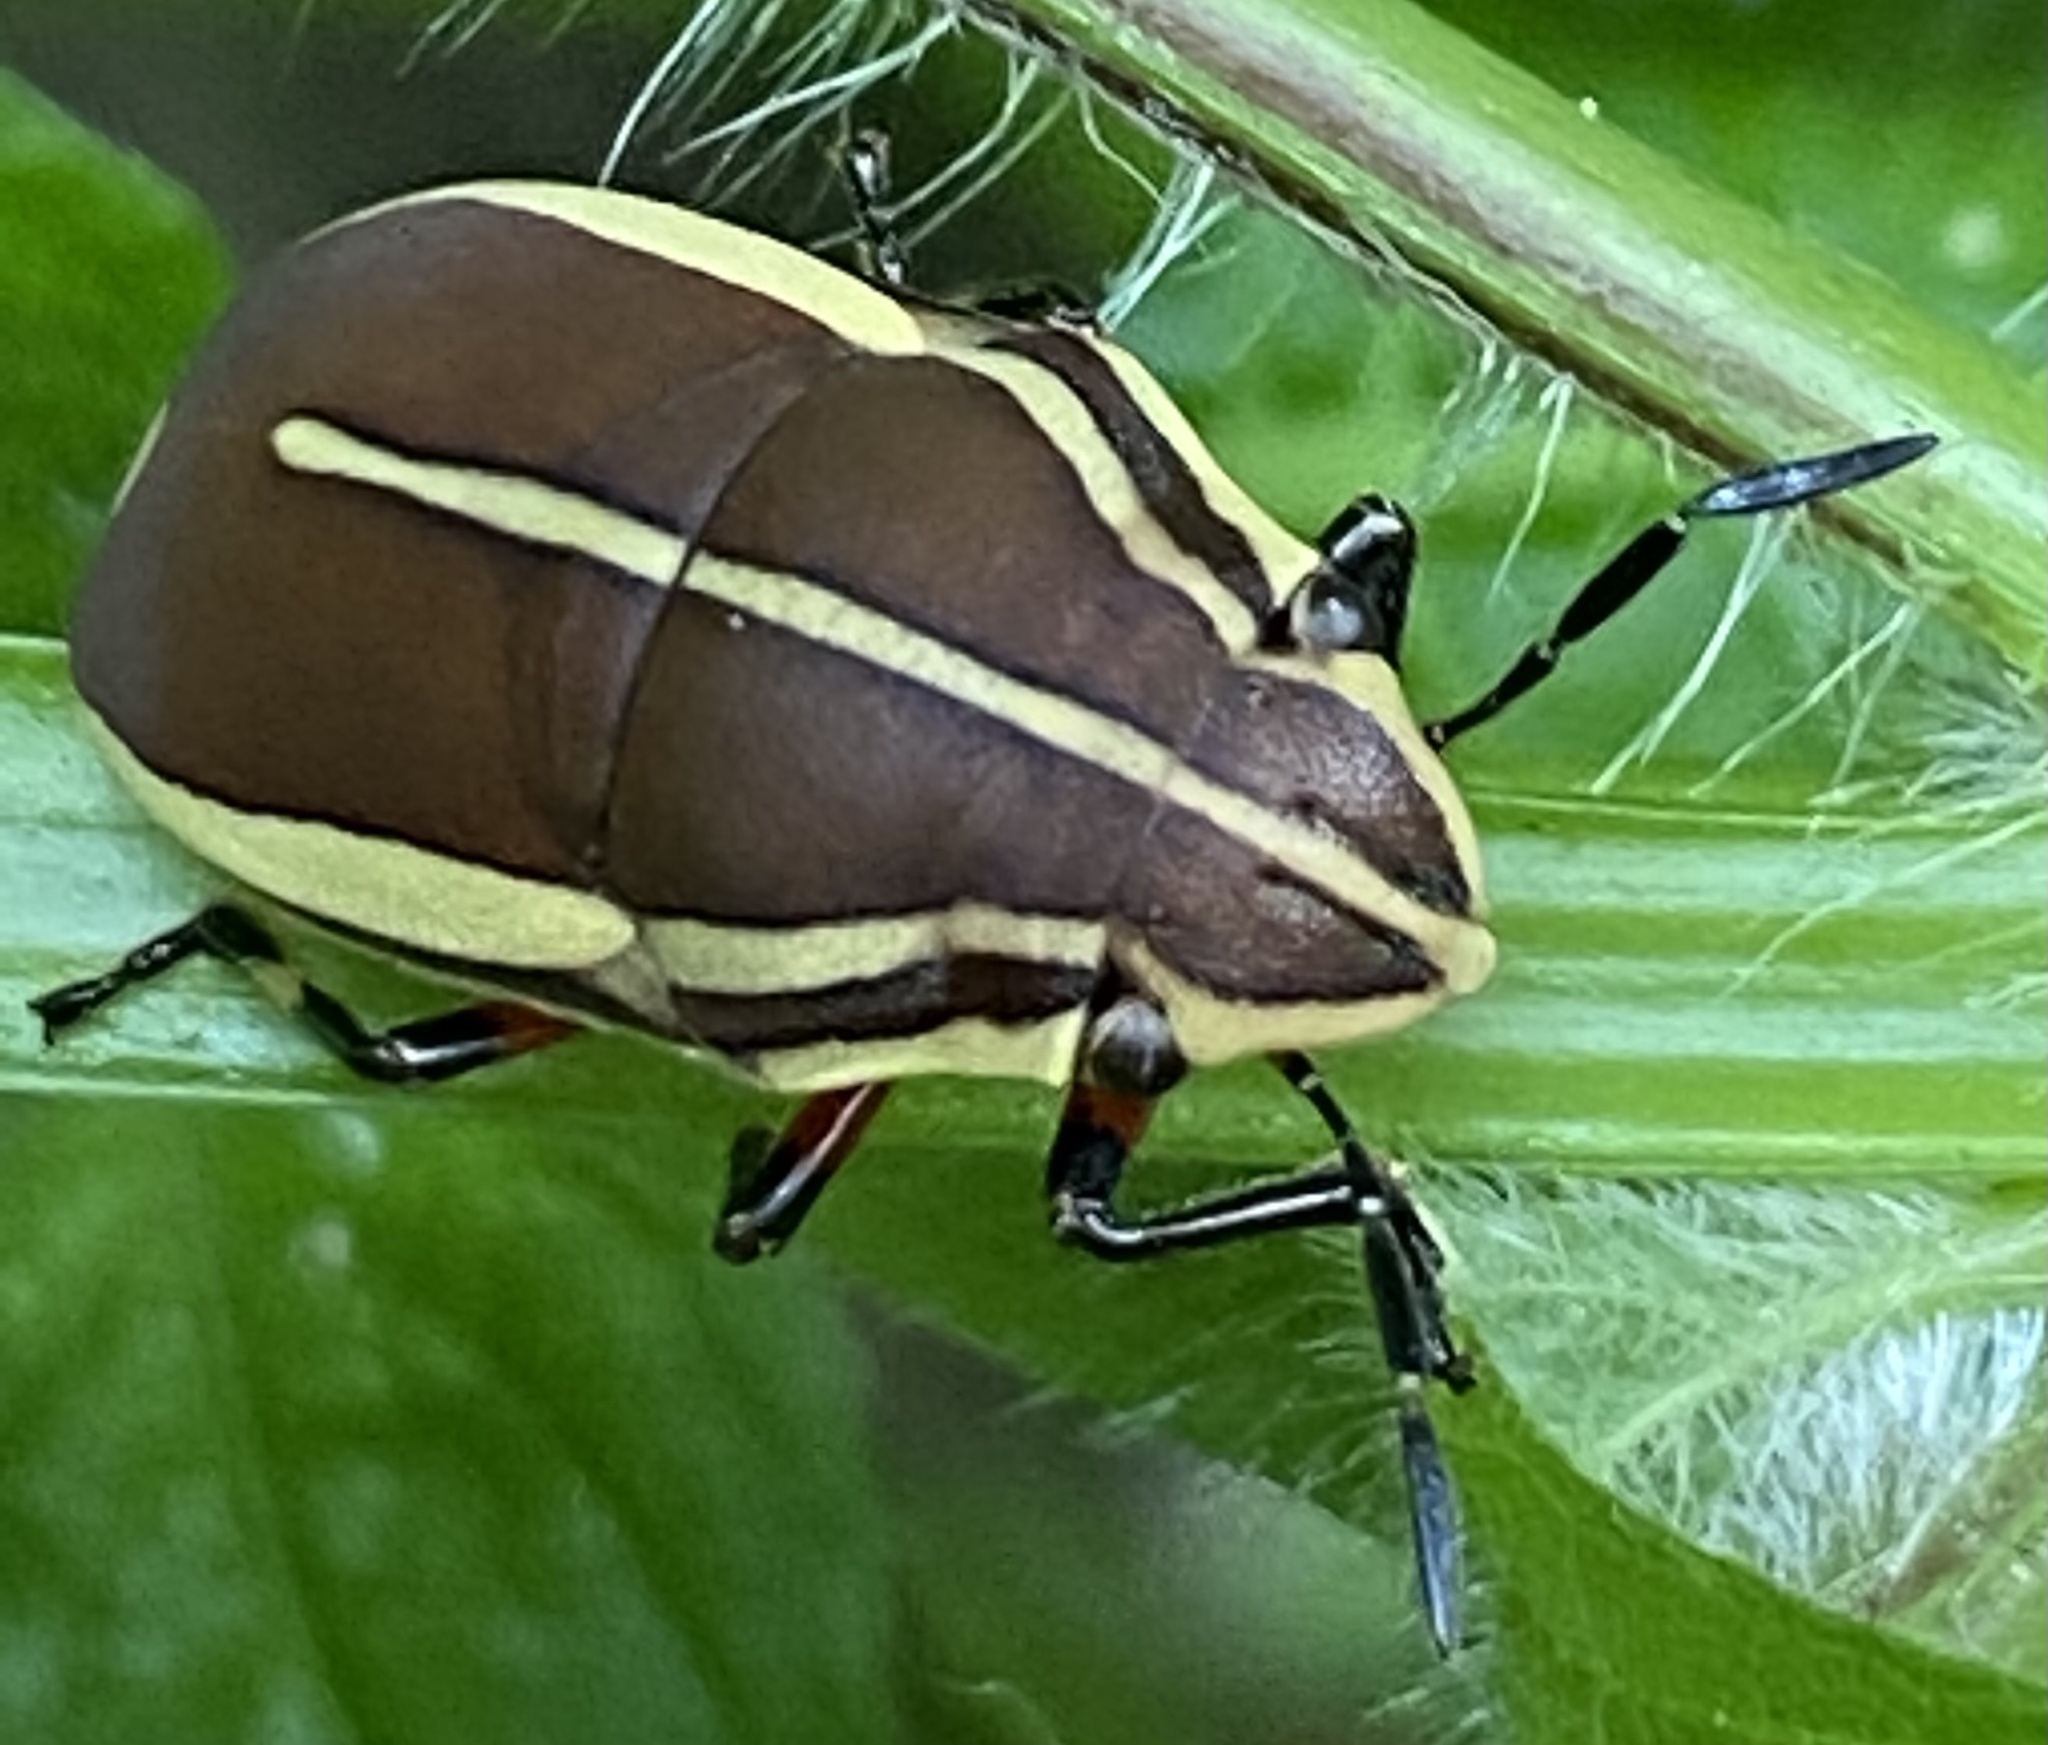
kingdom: Animalia
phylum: Arthropoda
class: Insecta
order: Hemiptera
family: Scutelleridae
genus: Agonosoma
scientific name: Agonosoma flavolineata
